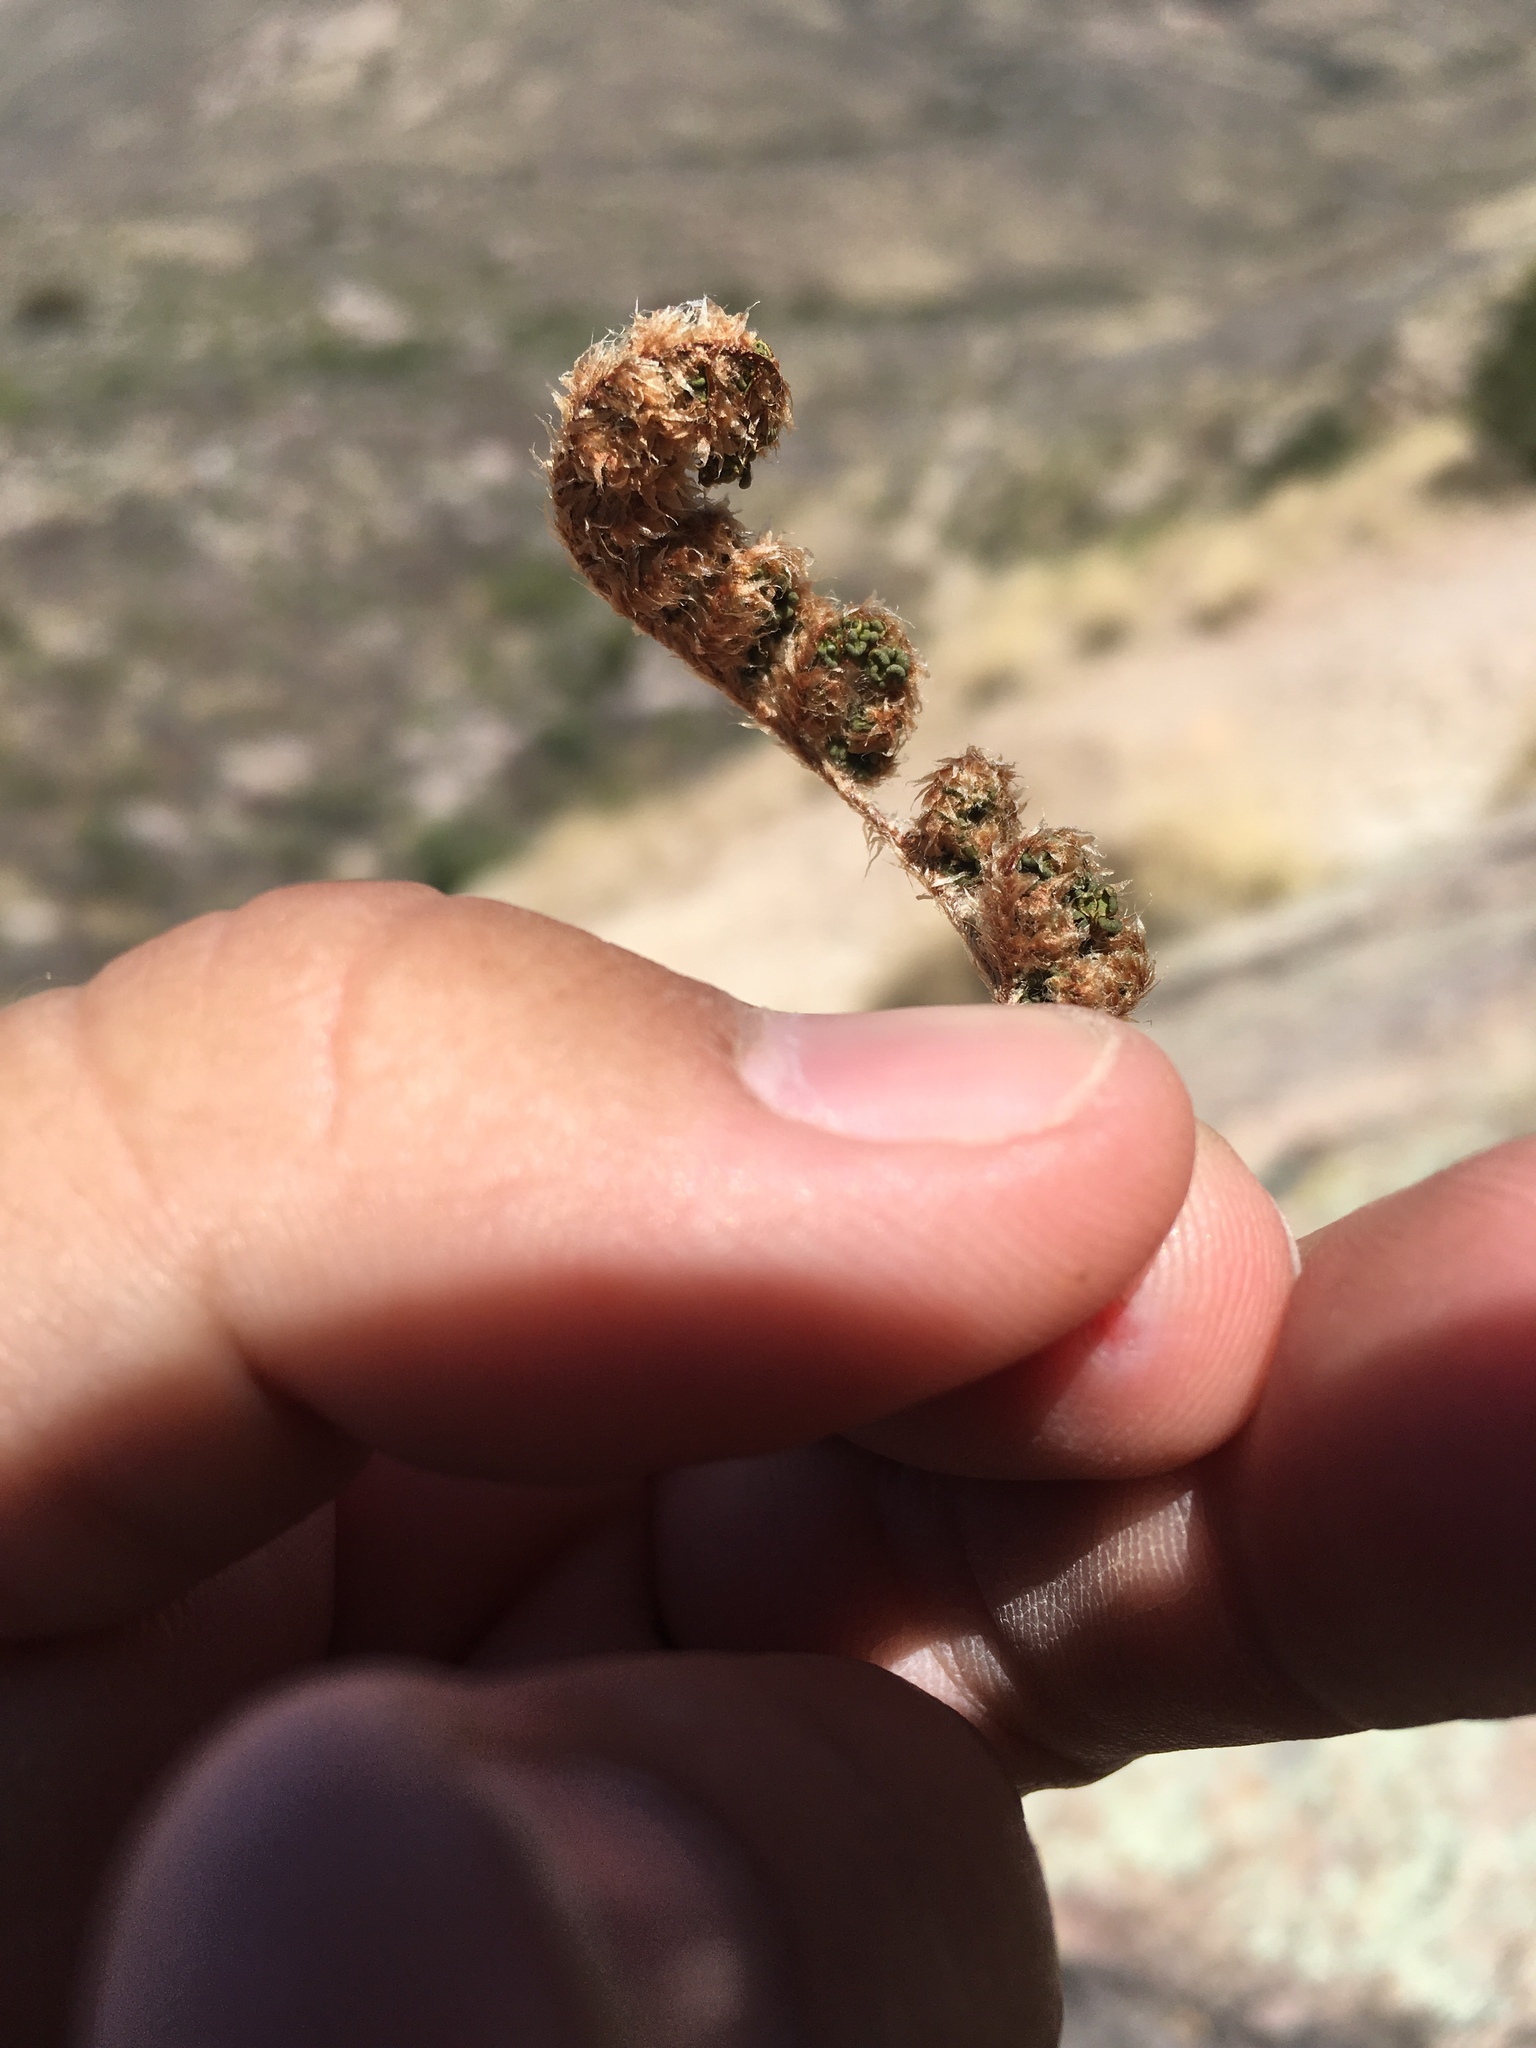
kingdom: Plantae
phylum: Tracheophyta
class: Polypodiopsida
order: Polypodiales
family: Pteridaceae
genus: Myriopteris
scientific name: Myriopteris wootonii
